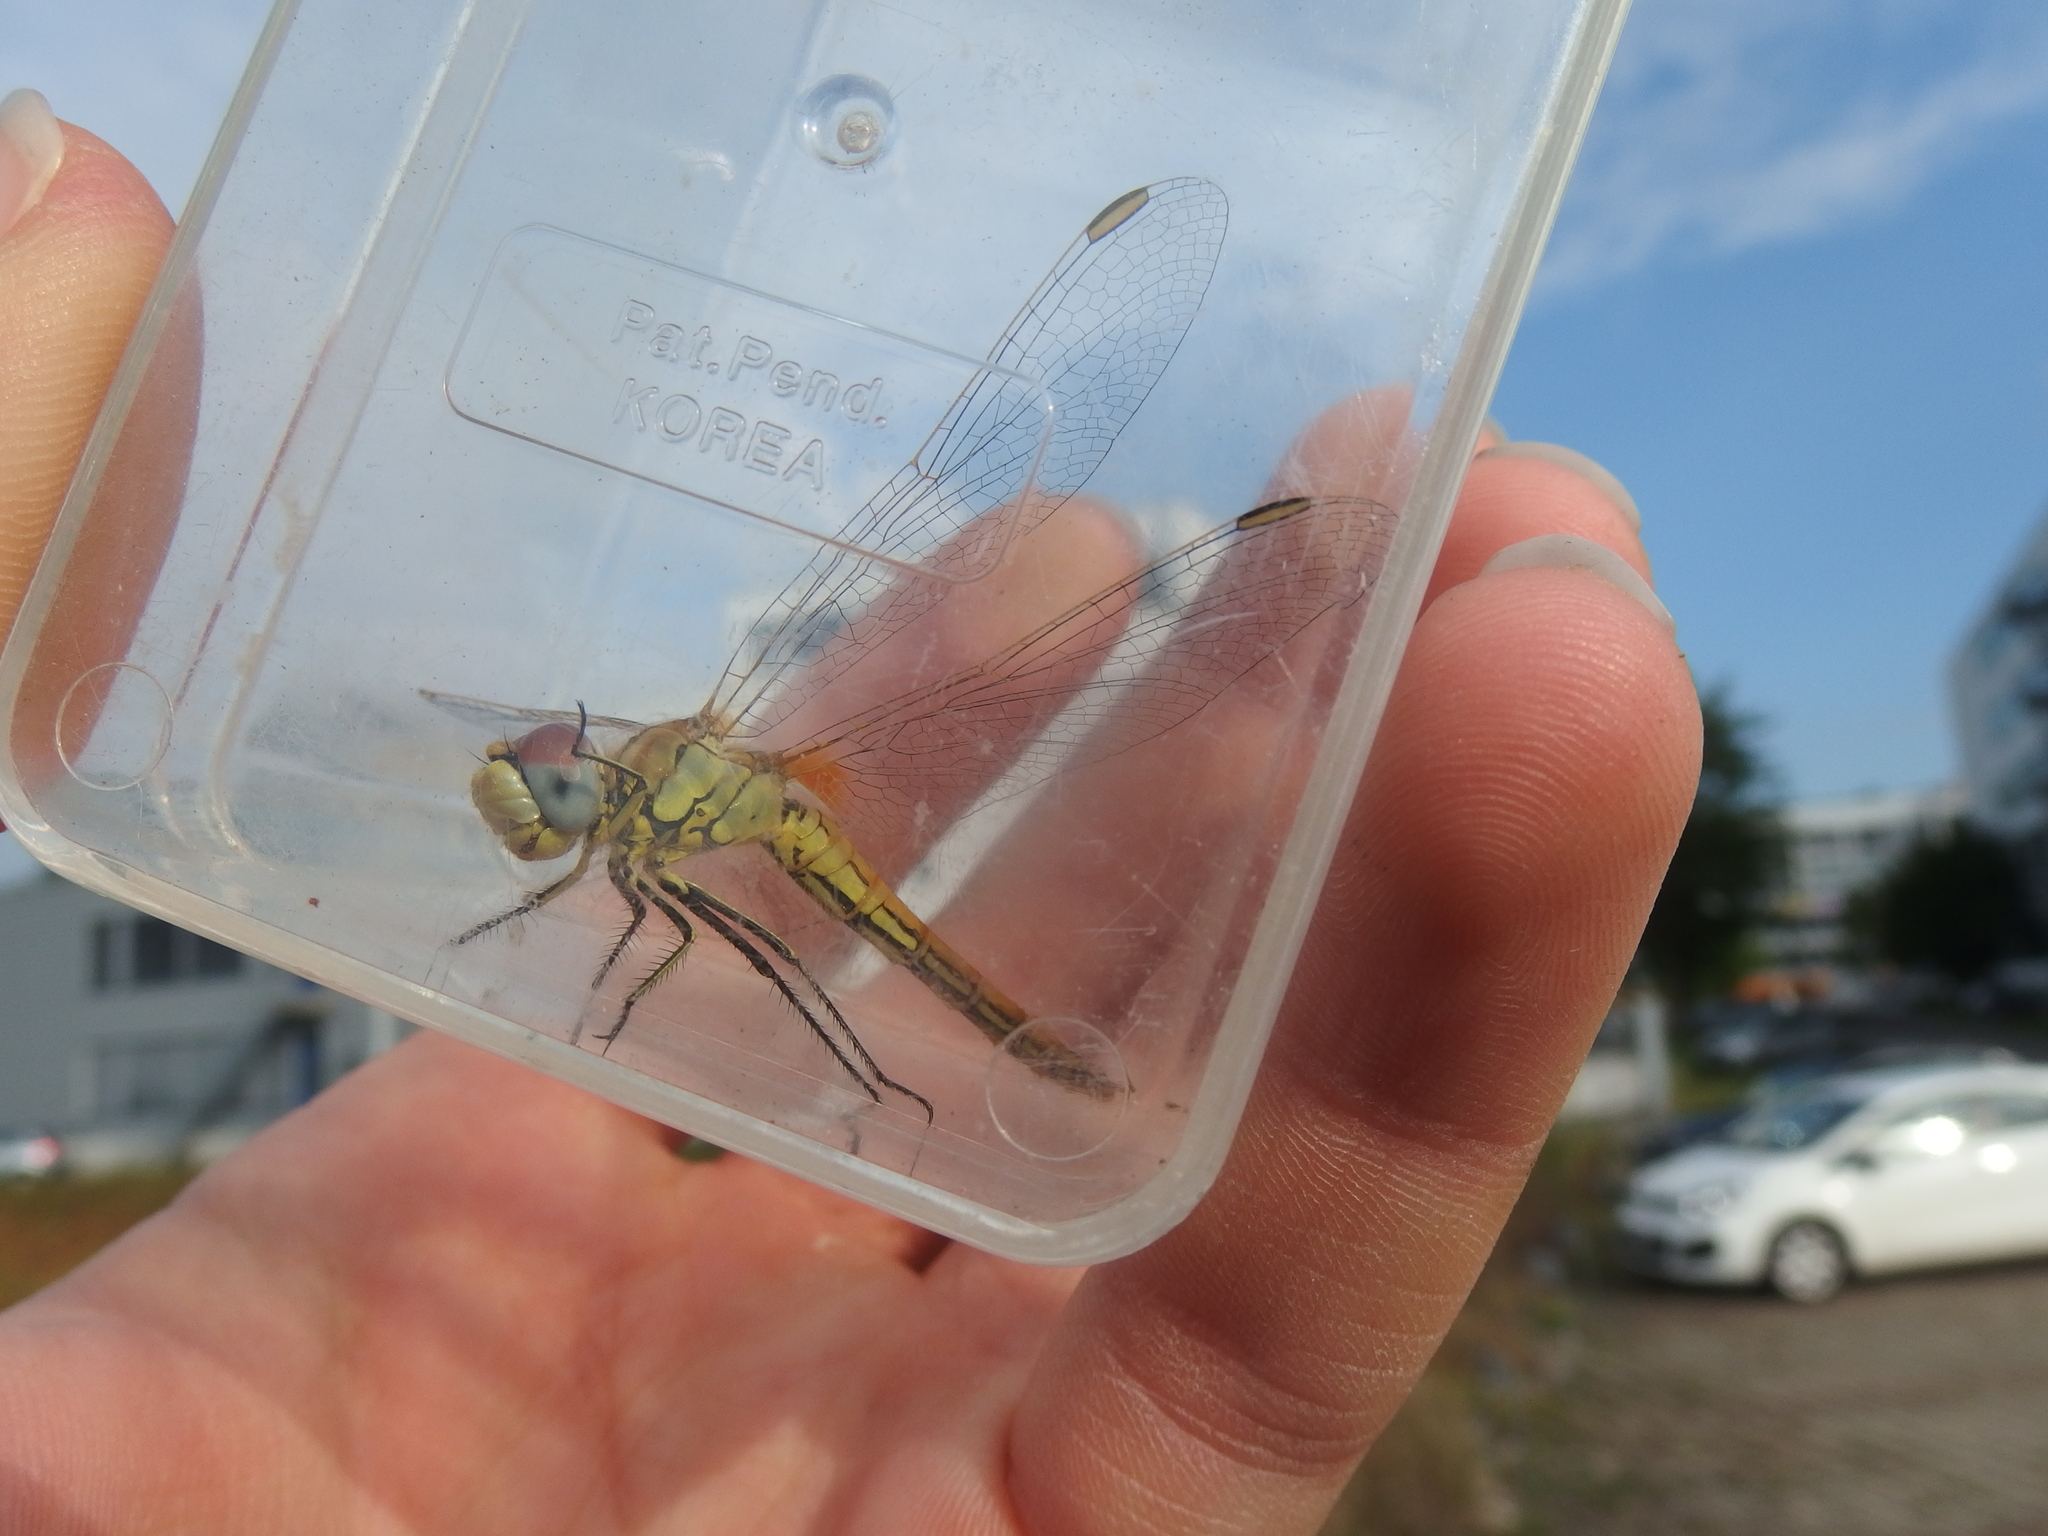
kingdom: Animalia
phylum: Arthropoda
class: Insecta
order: Odonata
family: Libellulidae
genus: Sympetrum
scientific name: Sympetrum fonscolombii
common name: Red-veined darter
